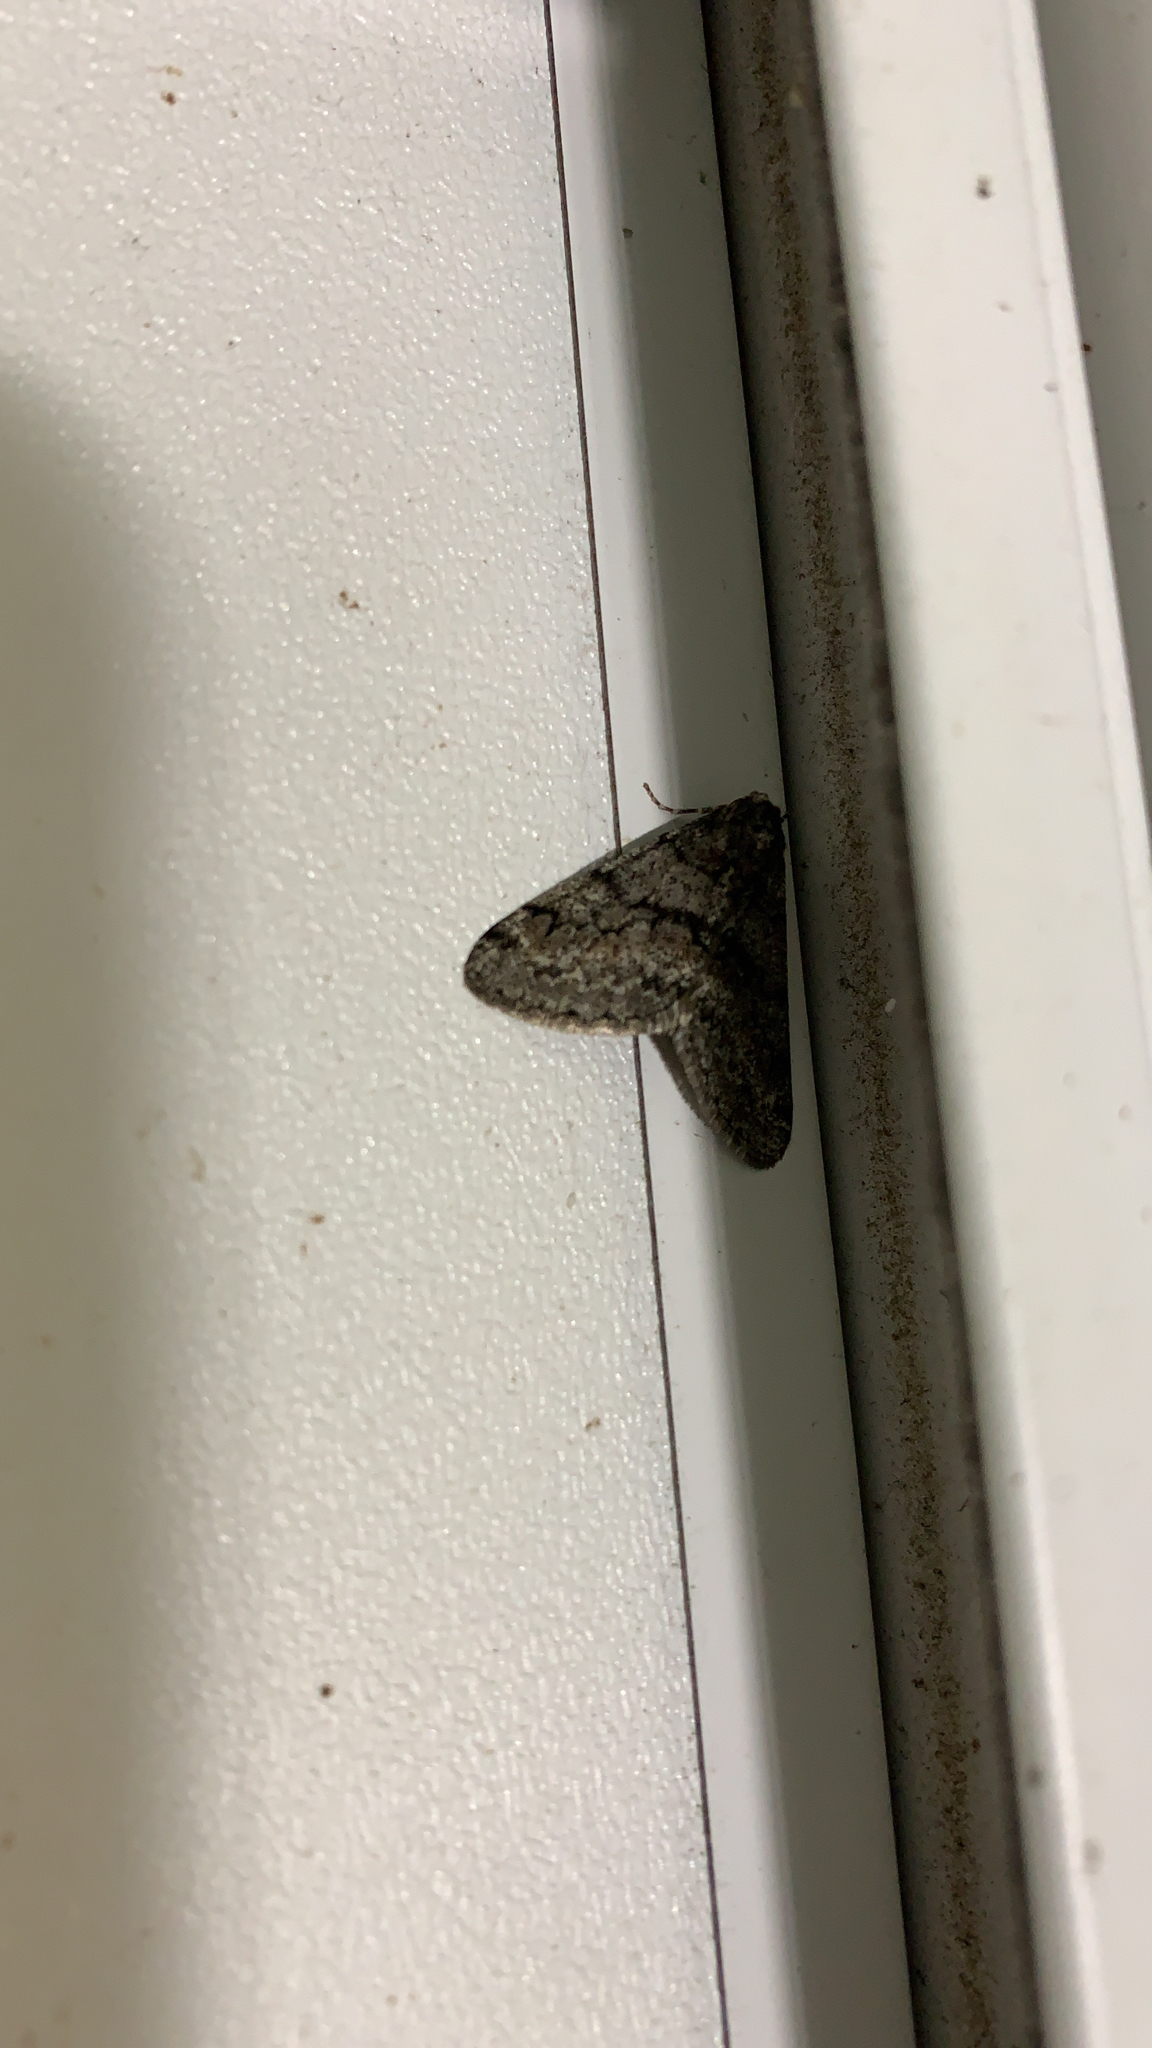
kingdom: Animalia
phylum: Arthropoda
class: Insecta
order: Lepidoptera
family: Geometridae
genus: Phigalia
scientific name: Phigalia strigataria
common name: Small phigalia
